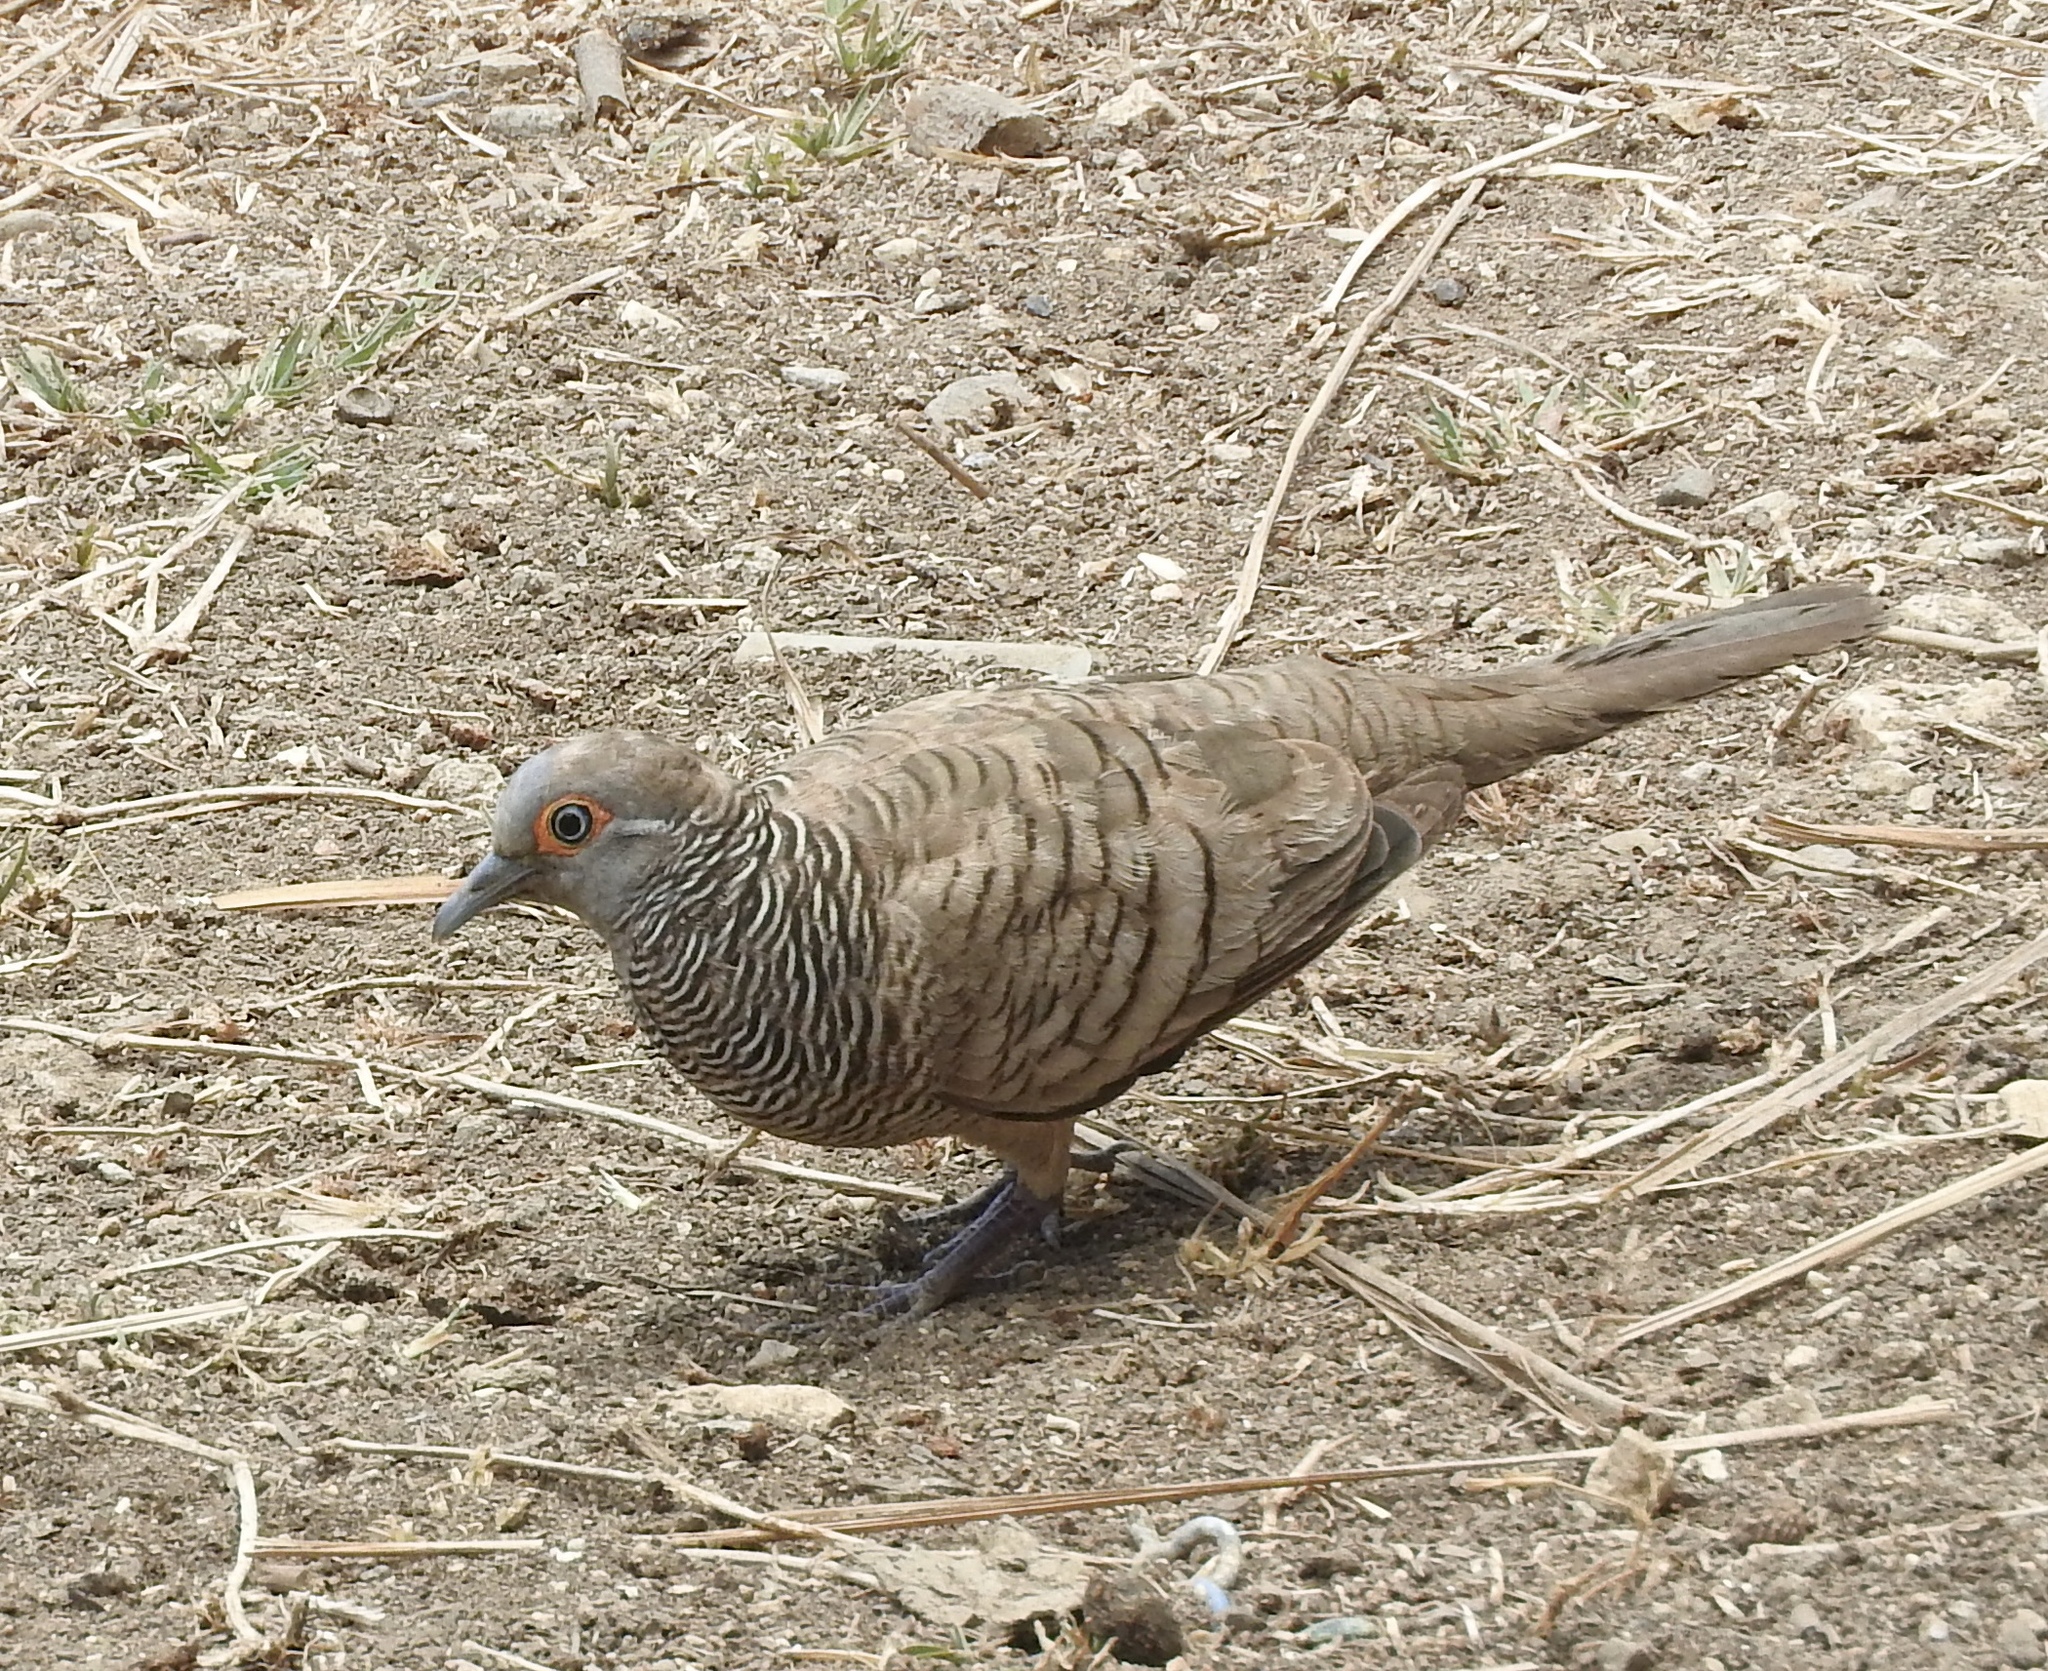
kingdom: Animalia
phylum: Chordata
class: Aves
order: Columbiformes
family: Columbidae
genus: Geopelia
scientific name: Geopelia maugeus
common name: Barred dove
